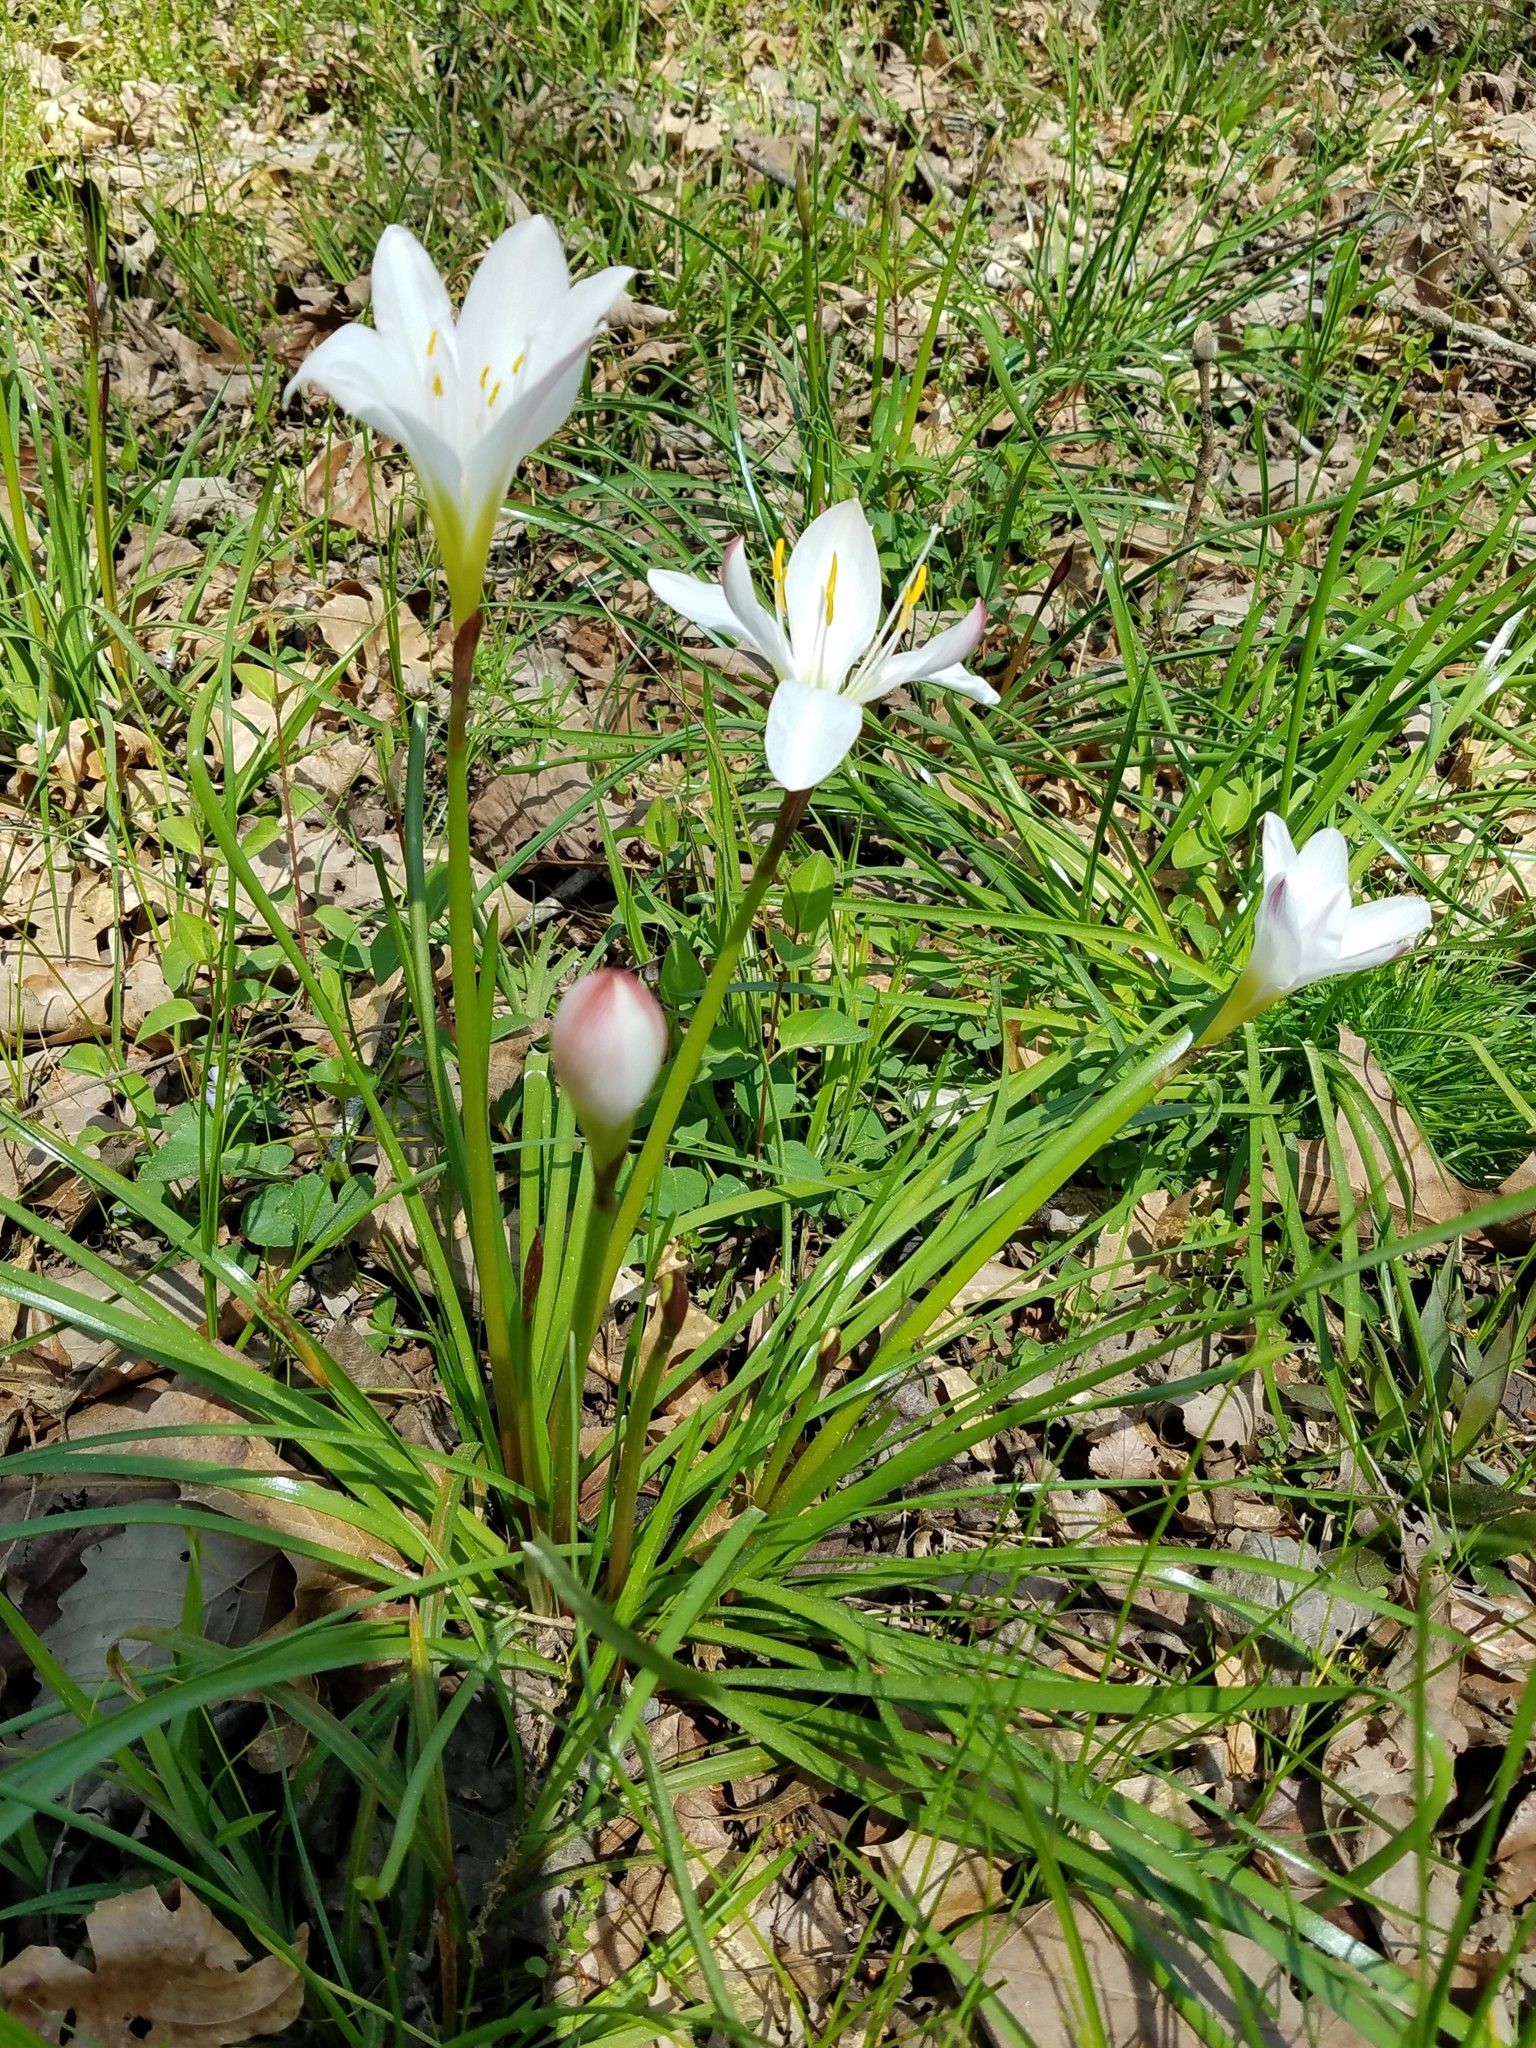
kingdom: Plantae
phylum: Tracheophyta
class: Liliopsida
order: Asparagales
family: Amaryllidaceae
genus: Zephyranthes
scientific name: Zephyranthes atamasco
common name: Atamasco lily
